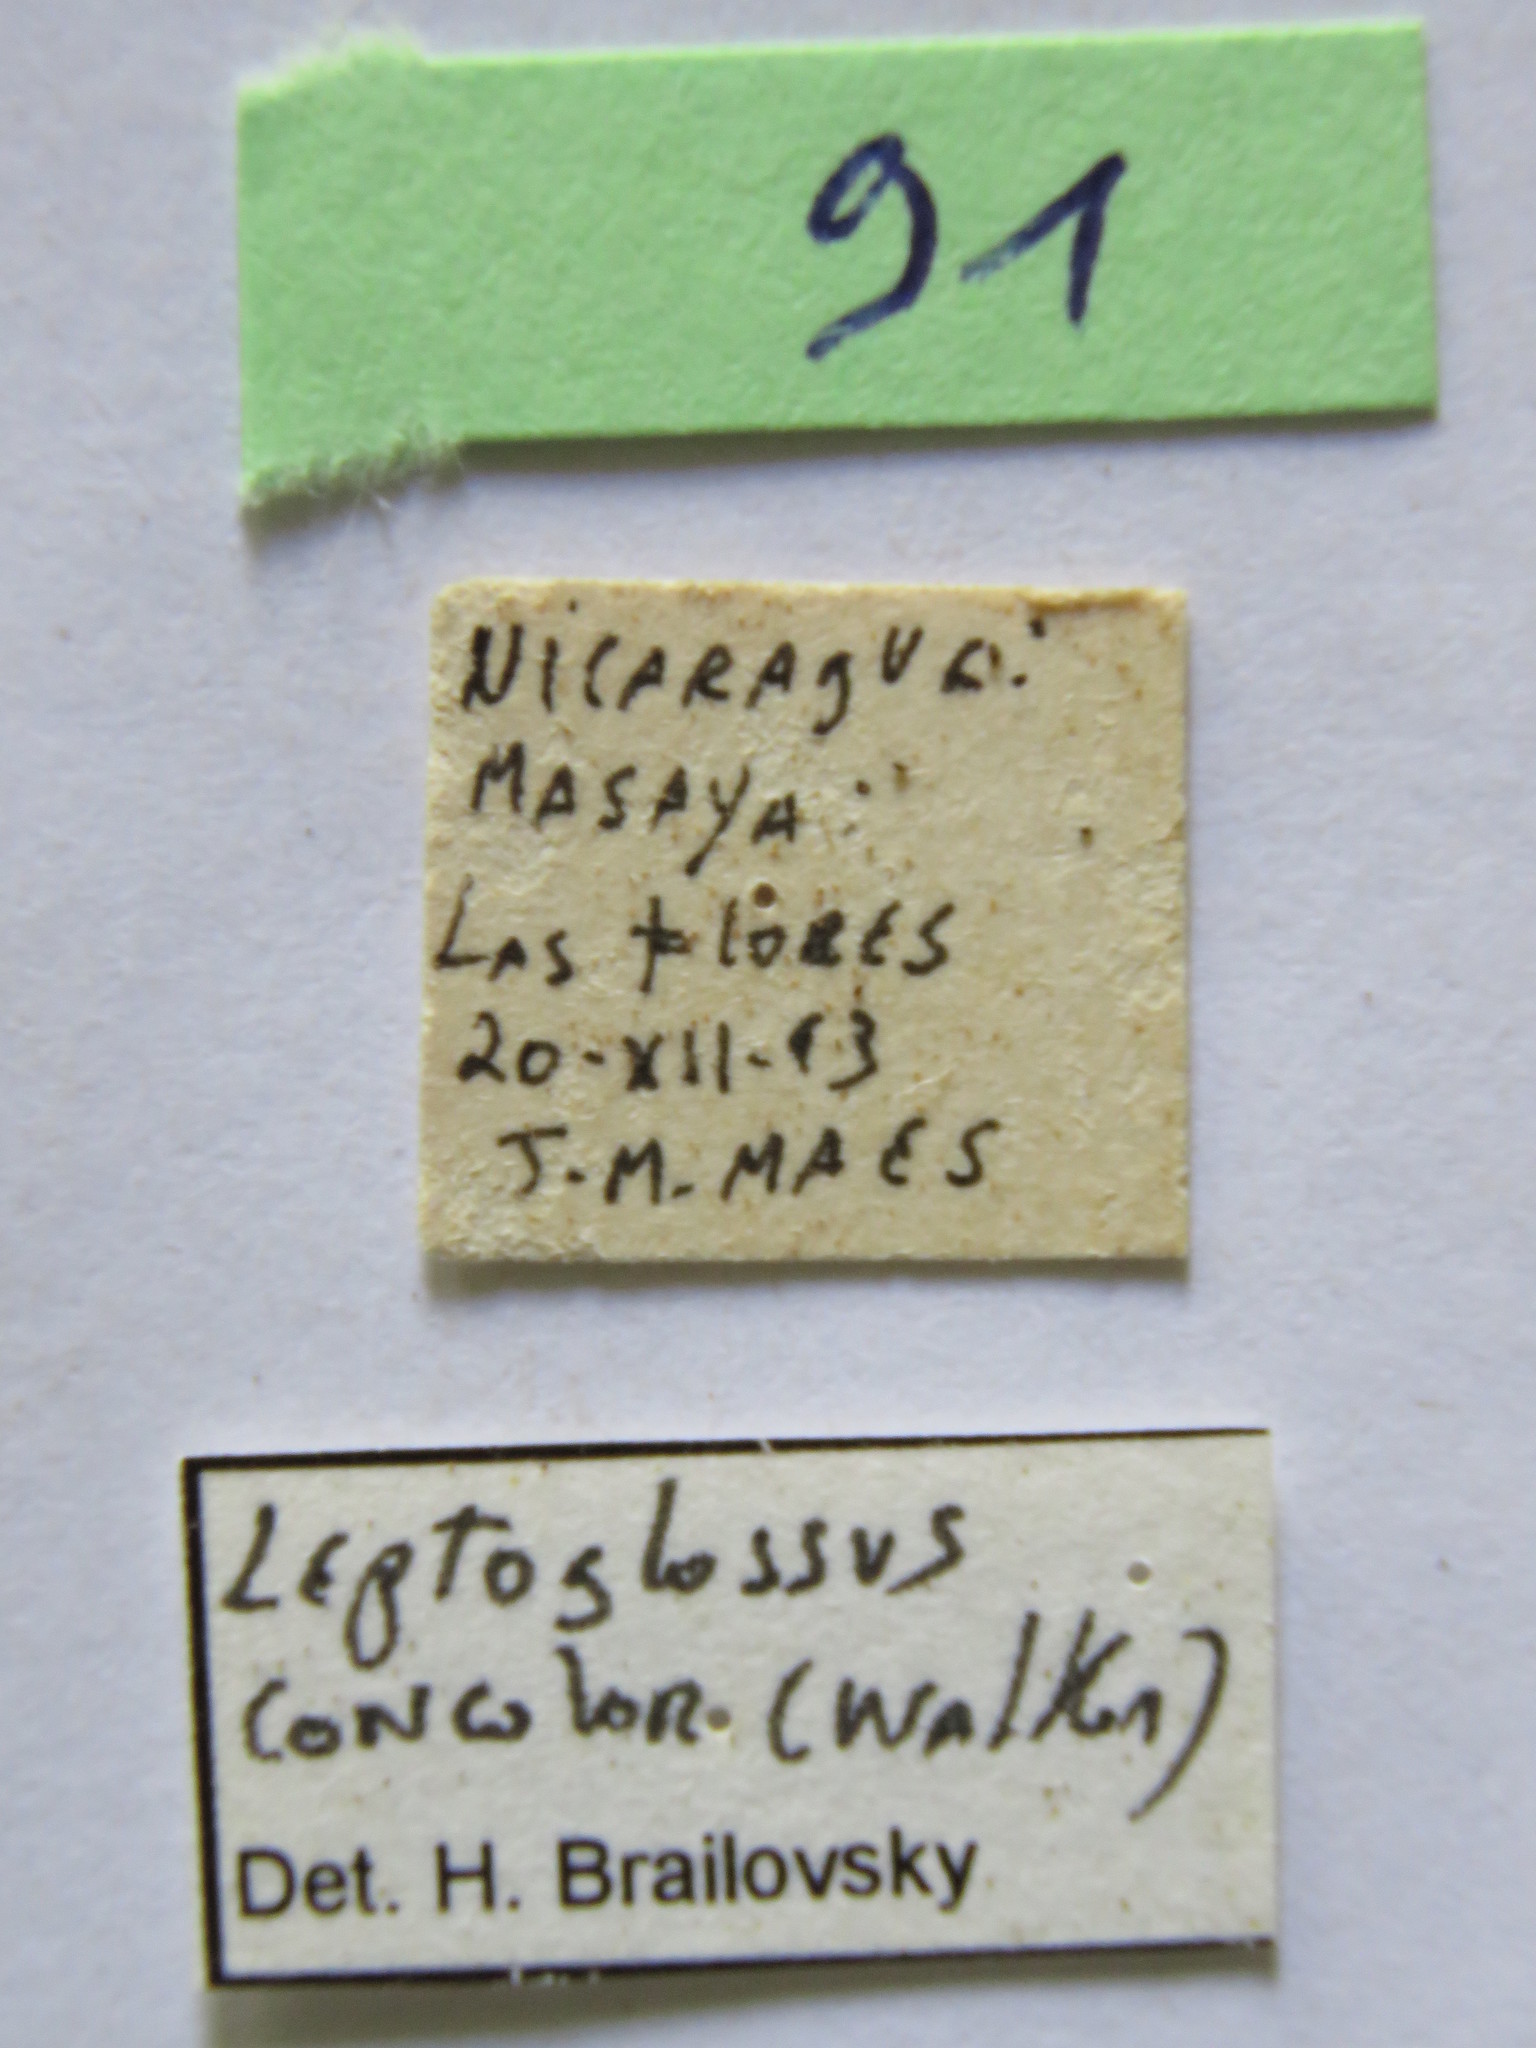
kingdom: Animalia
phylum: Arthropoda
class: Insecta
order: Hemiptera
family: Coreidae
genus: Leptoglossus
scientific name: Leptoglossus concolor
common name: Leaf-footed bug
